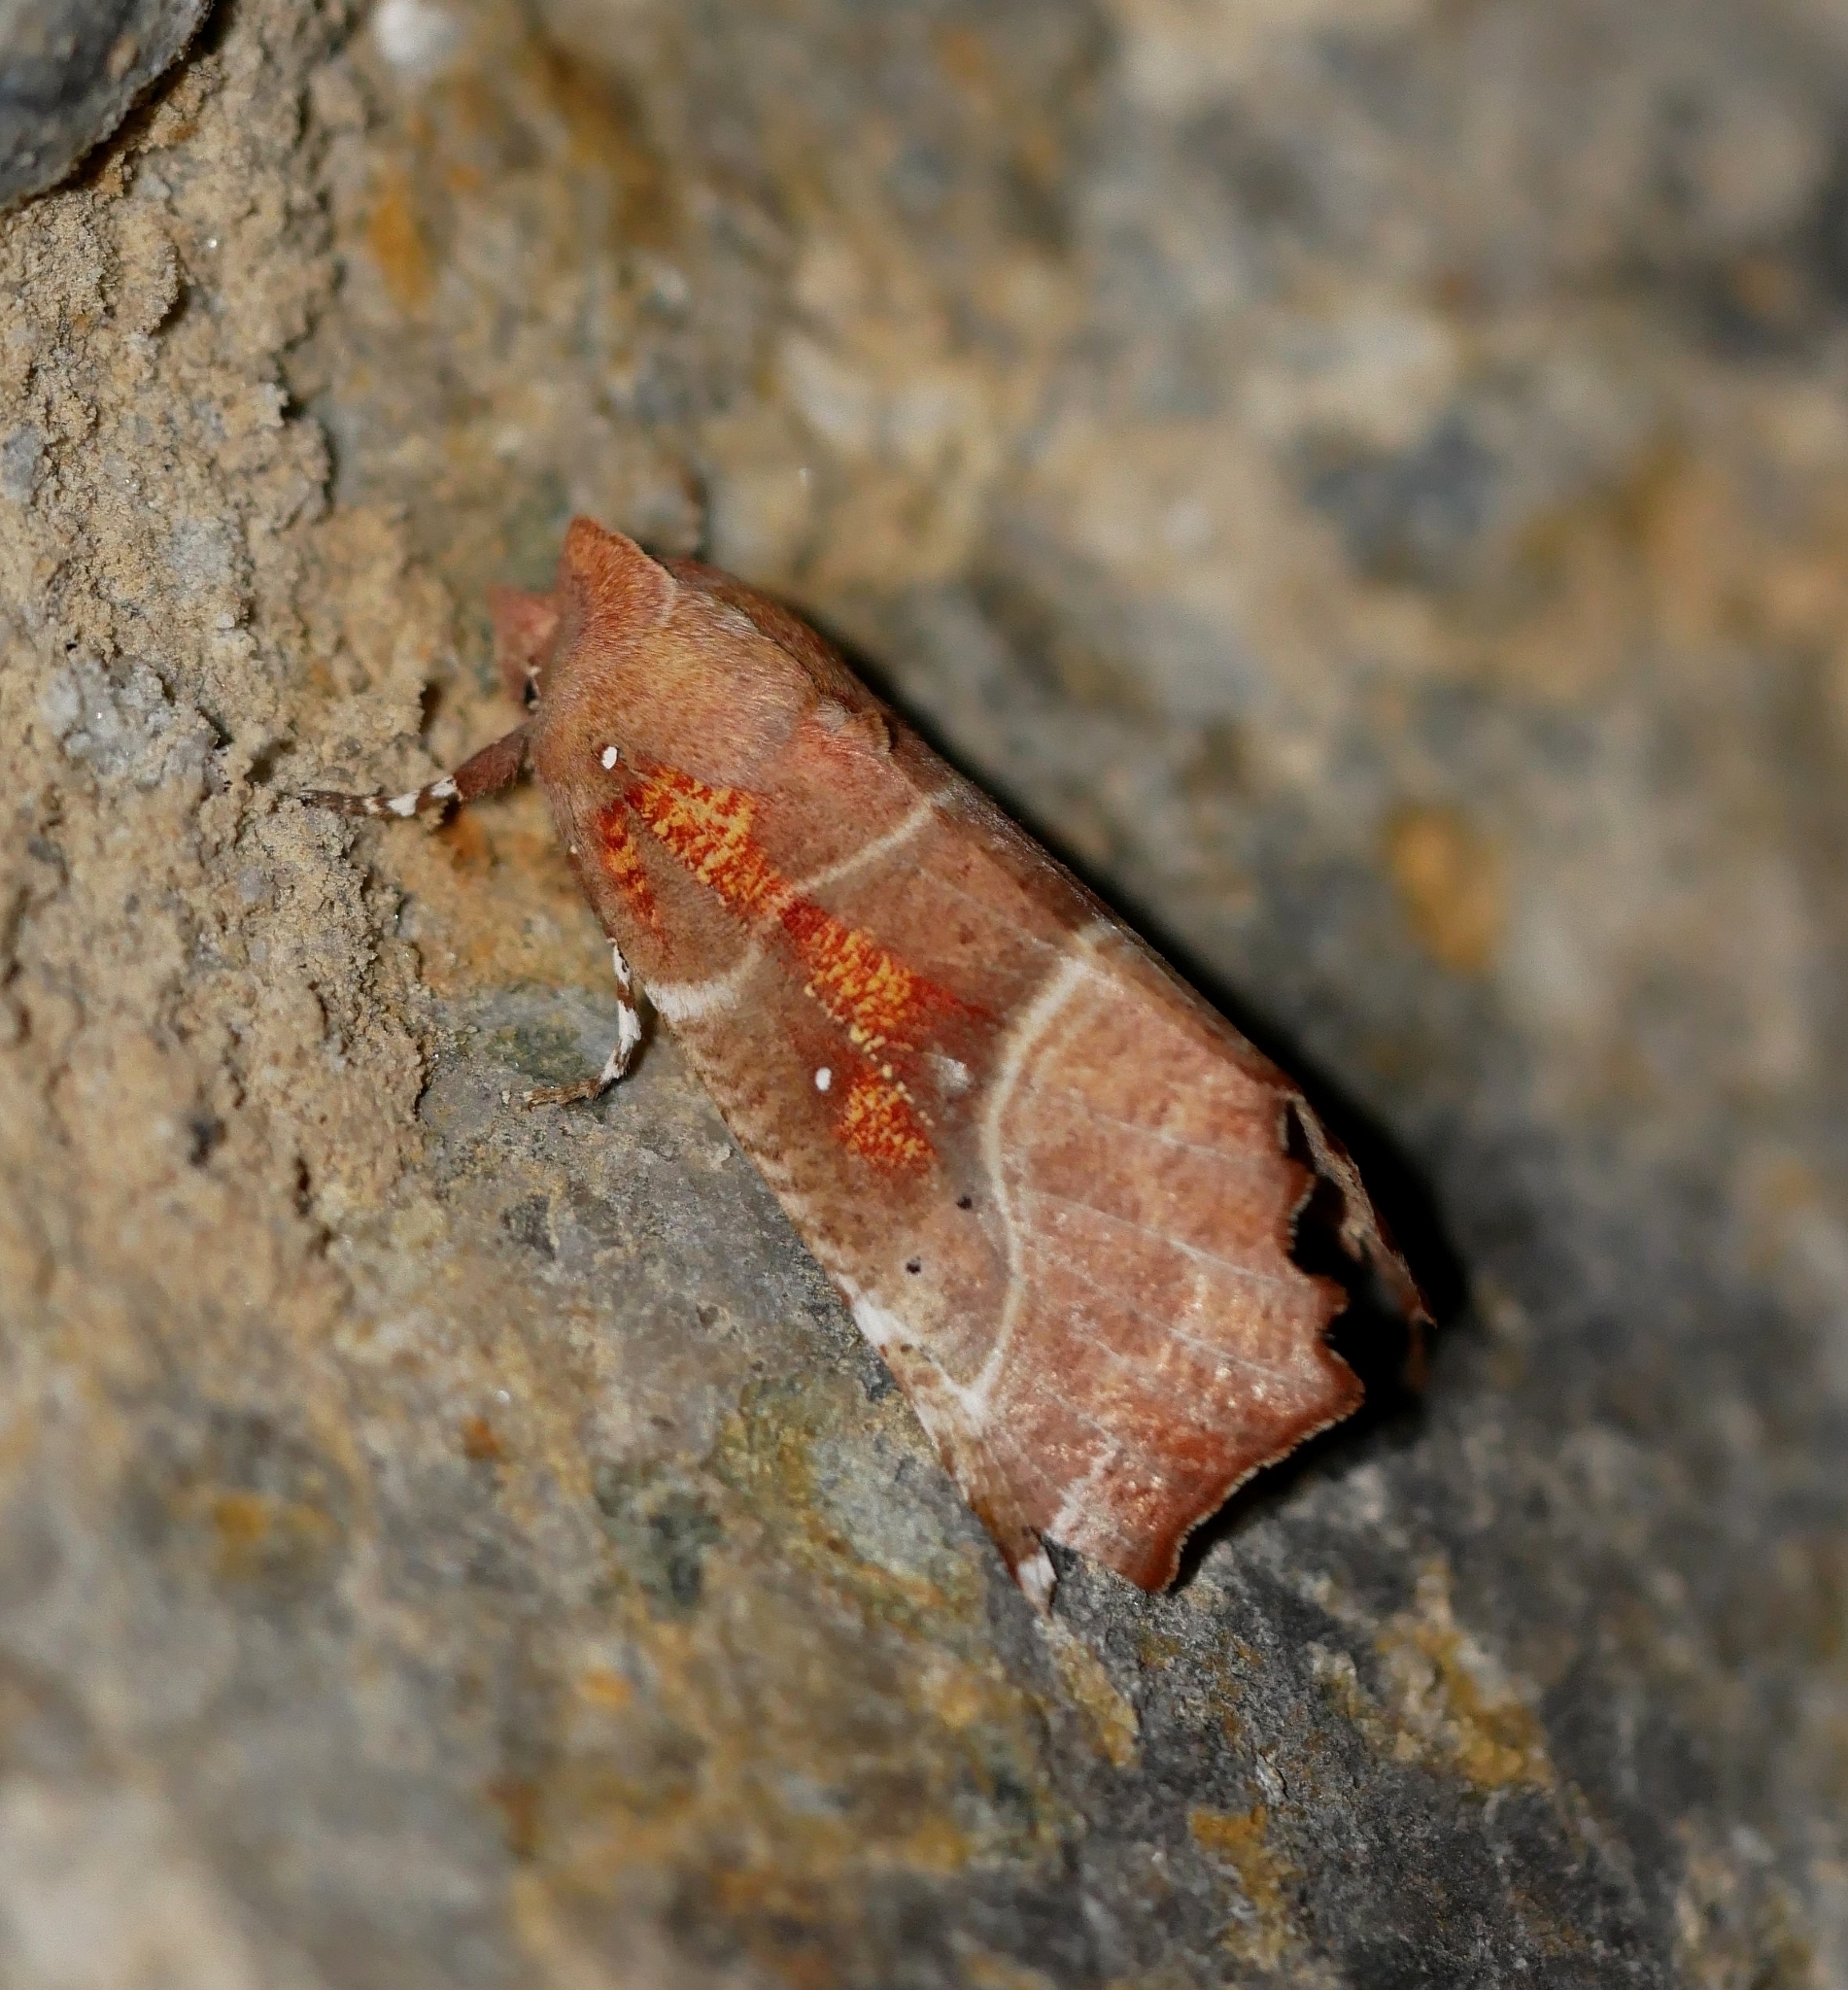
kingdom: Animalia
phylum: Arthropoda
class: Insecta
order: Lepidoptera
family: Erebidae
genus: Scoliopteryx
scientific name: Scoliopteryx libatrix
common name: Herald
